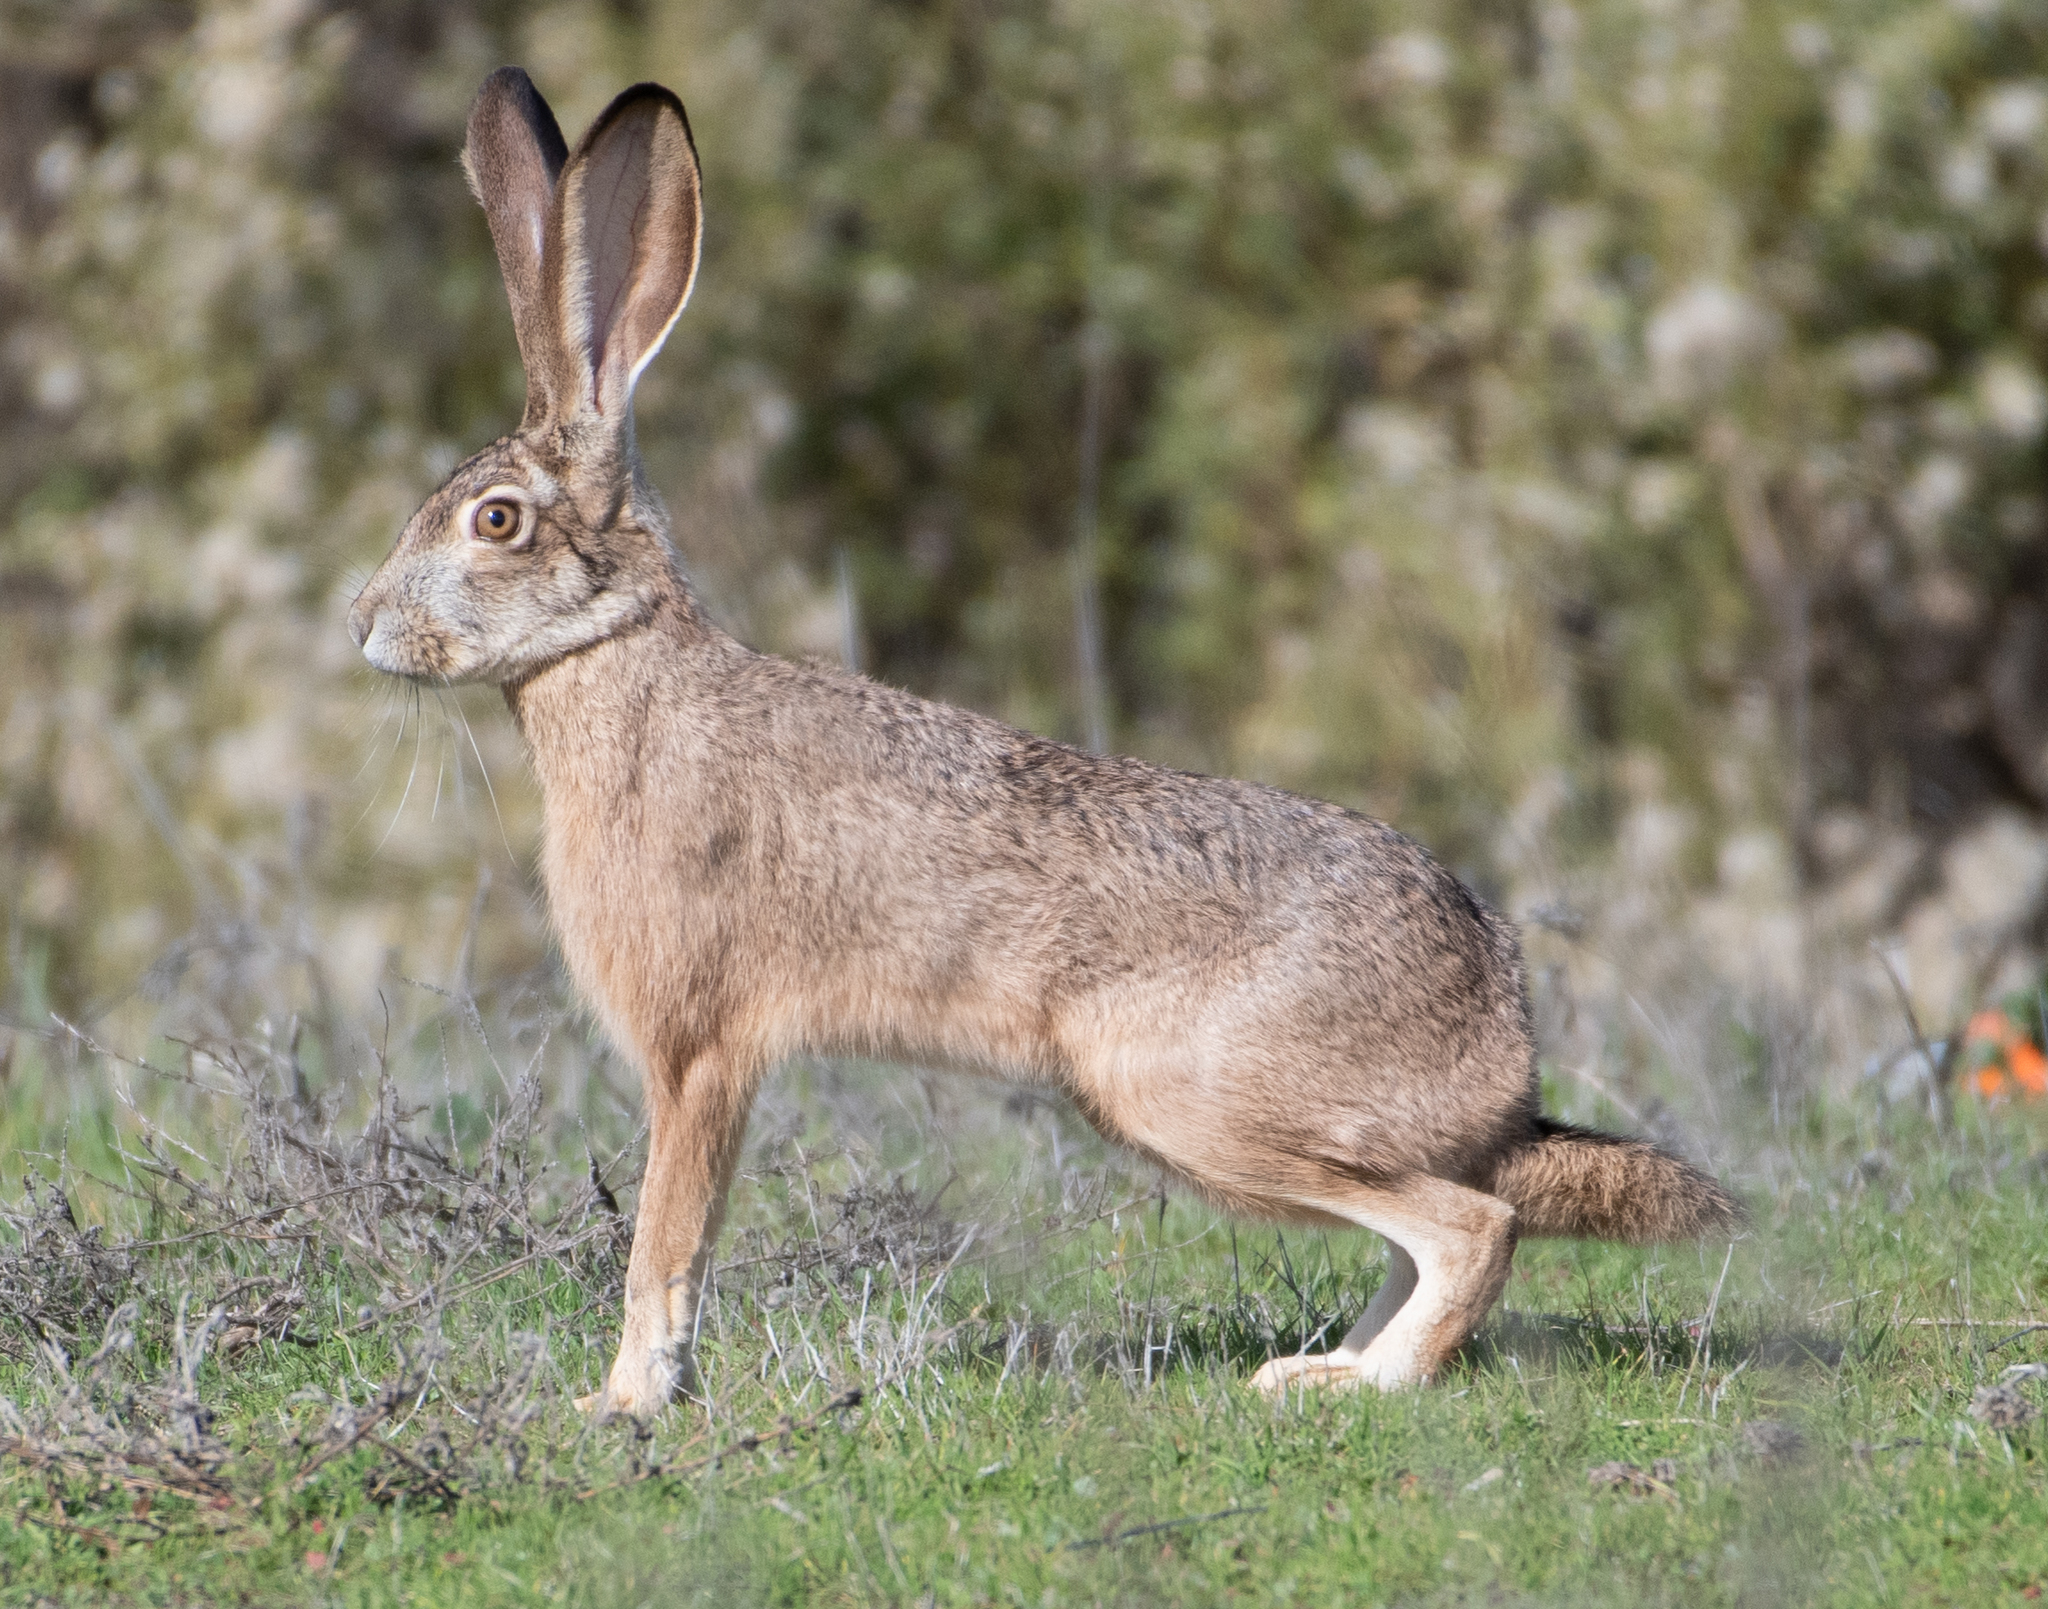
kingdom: Animalia
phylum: Chordata
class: Mammalia
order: Lagomorpha
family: Leporidae
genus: Lepus
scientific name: Lepus californicus
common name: Black-tailed jackrabbit
